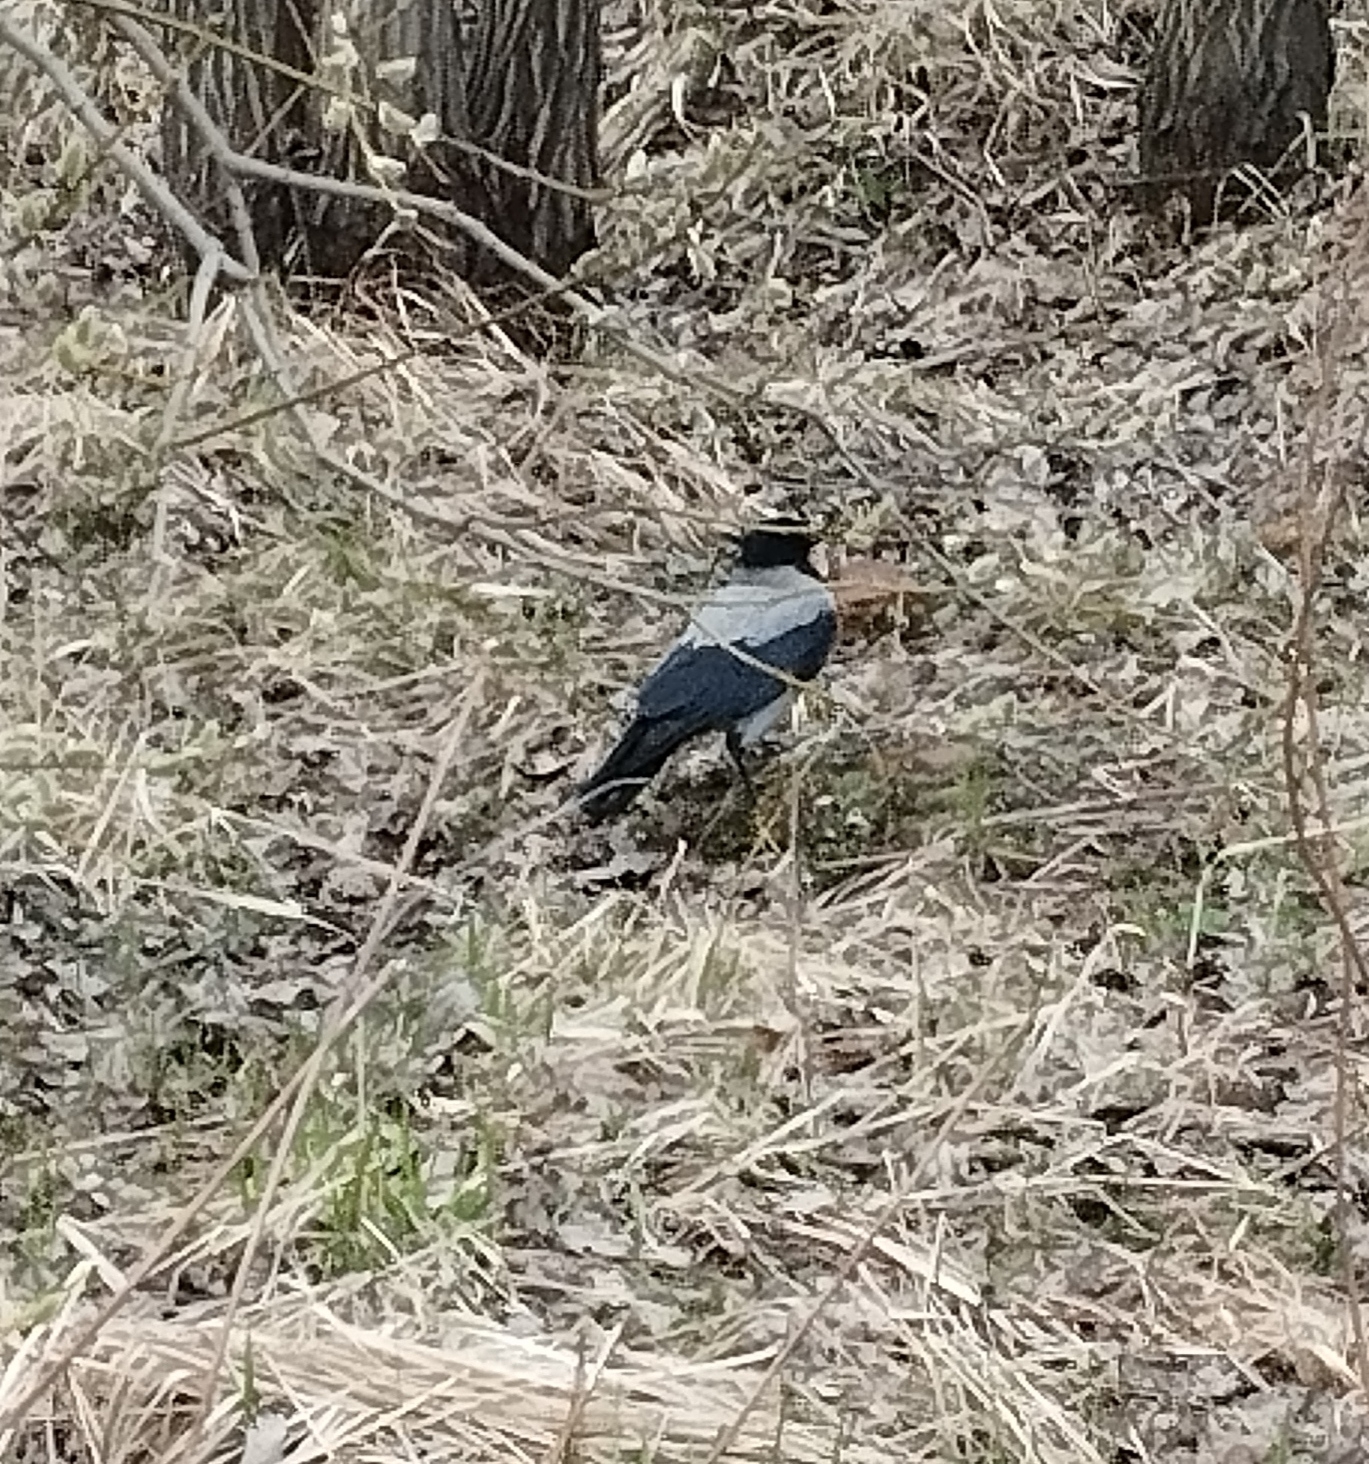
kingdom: Animalia
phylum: Chordata
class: Aves
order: Passeriformes
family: Corvidae
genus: Corvus
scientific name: Corvus cornix
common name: Hooded crow
